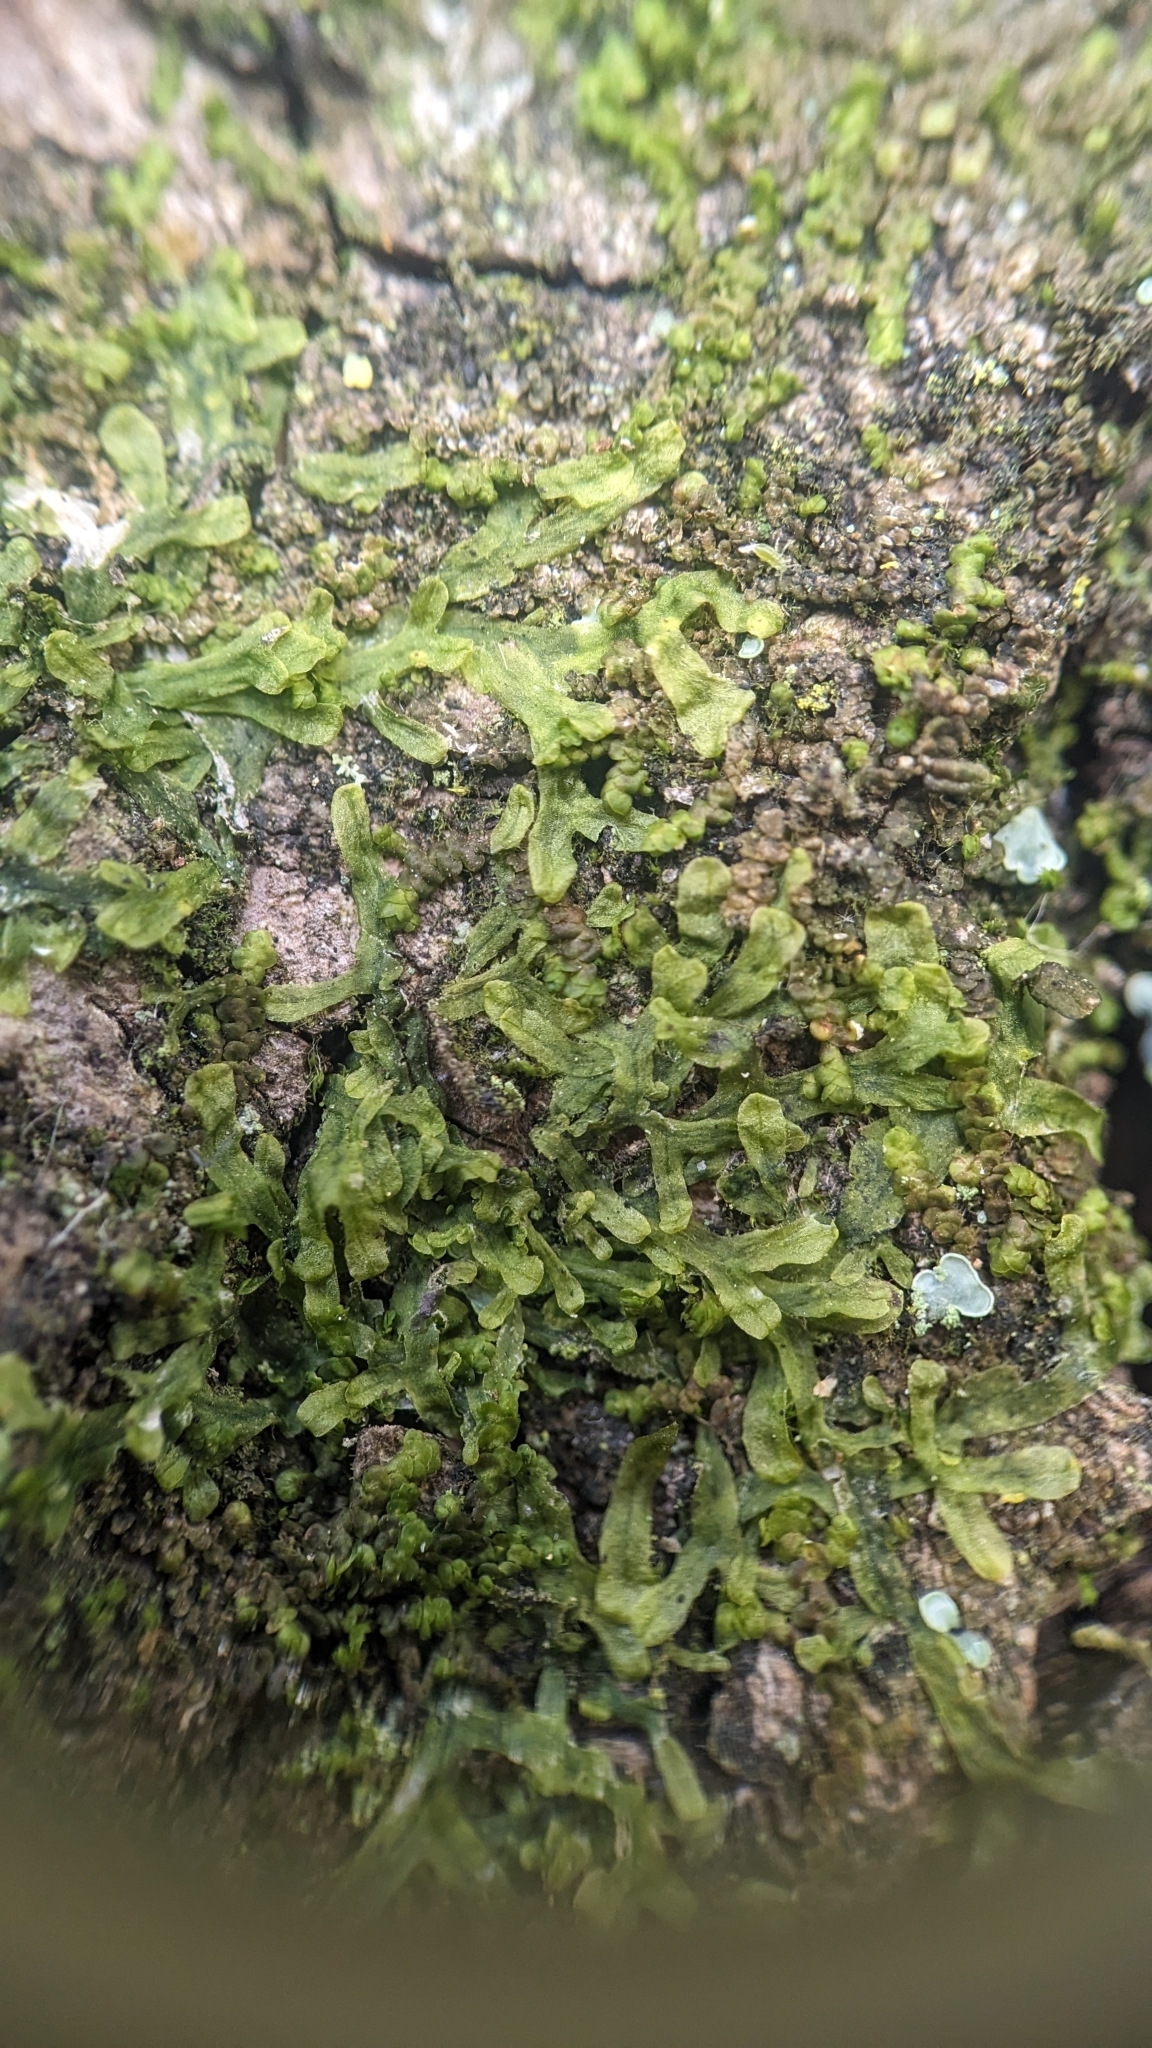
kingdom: Plantae
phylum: Marchantiophyta
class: Jungermanniopsida
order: Metzgeriales
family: Metzgeriaceae
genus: Metzgeria
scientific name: Metzgeria furcata
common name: Forked veilwort
